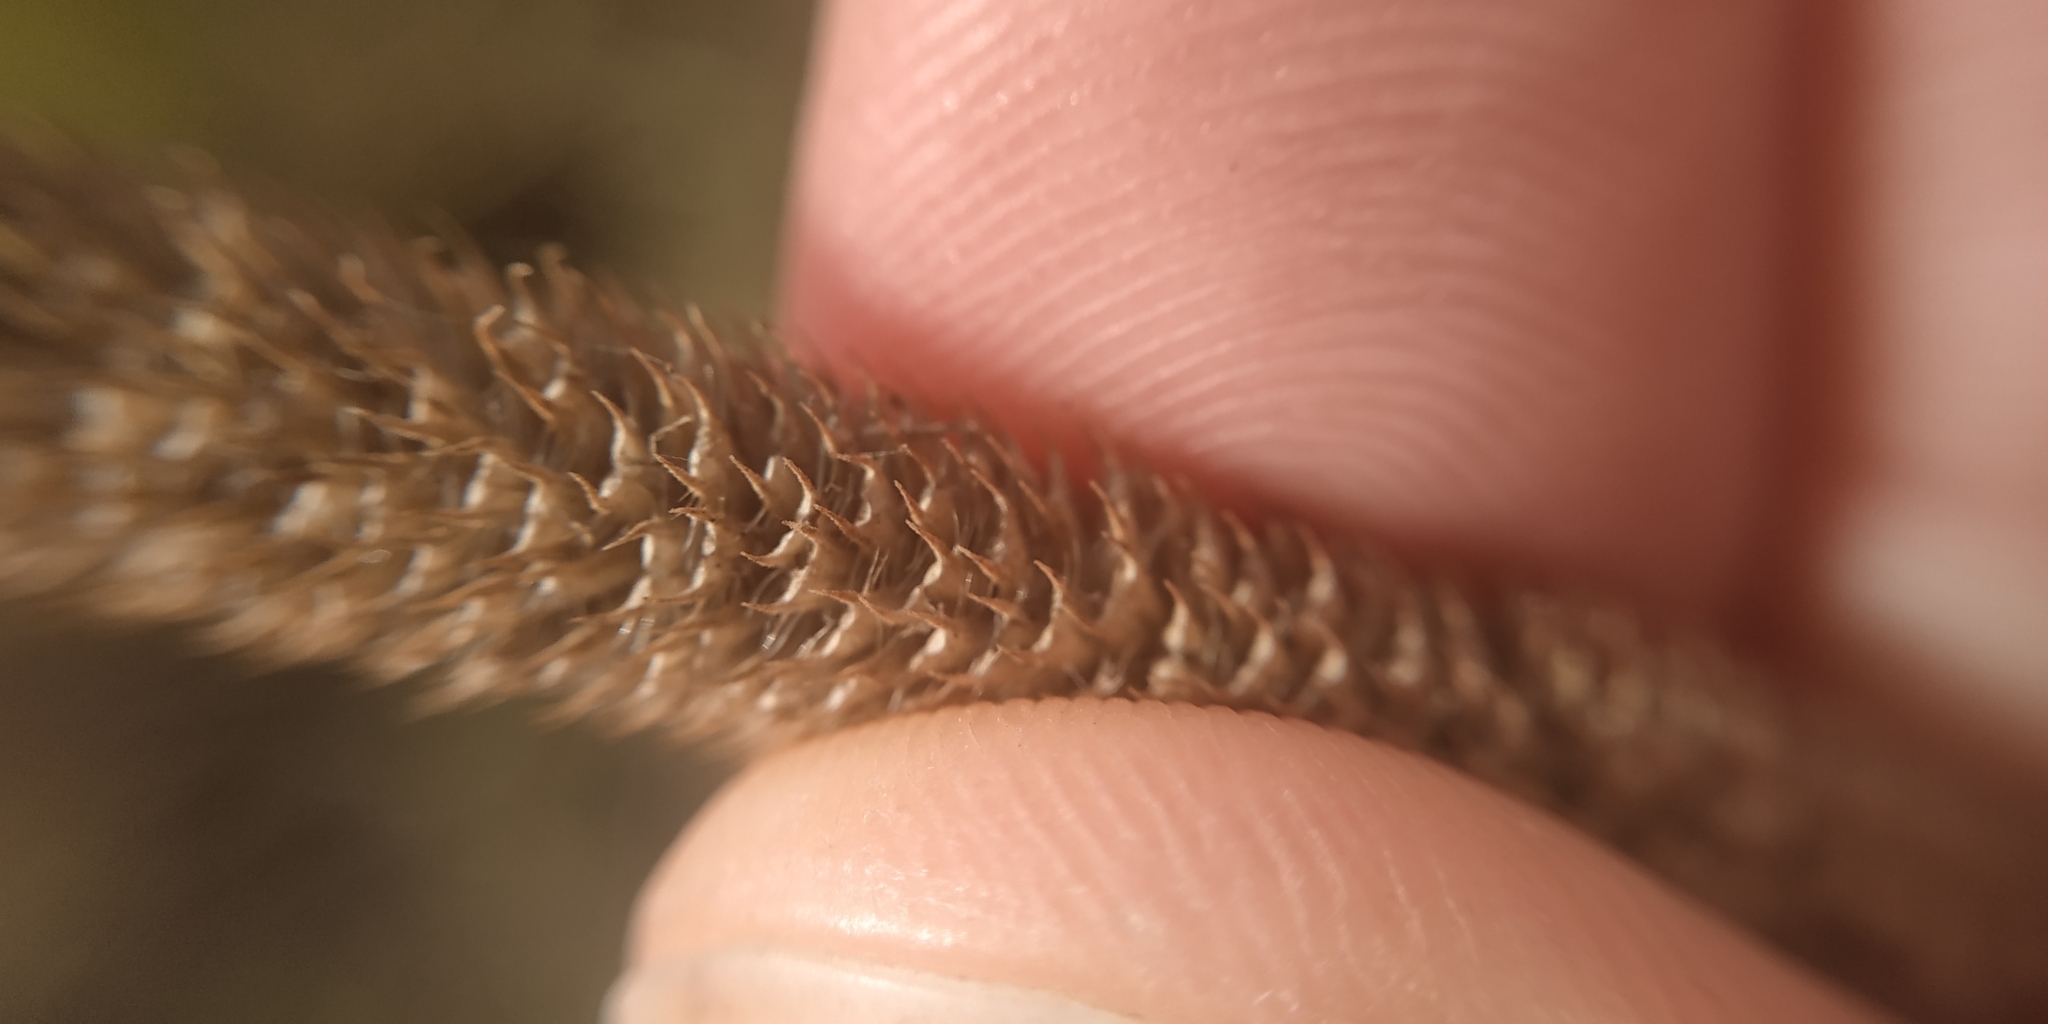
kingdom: Plantae
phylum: Tracheophyta
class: Liliopsida
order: Poales
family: Poaceae
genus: Phleum
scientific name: Phleum pratense
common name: Timothy grass
